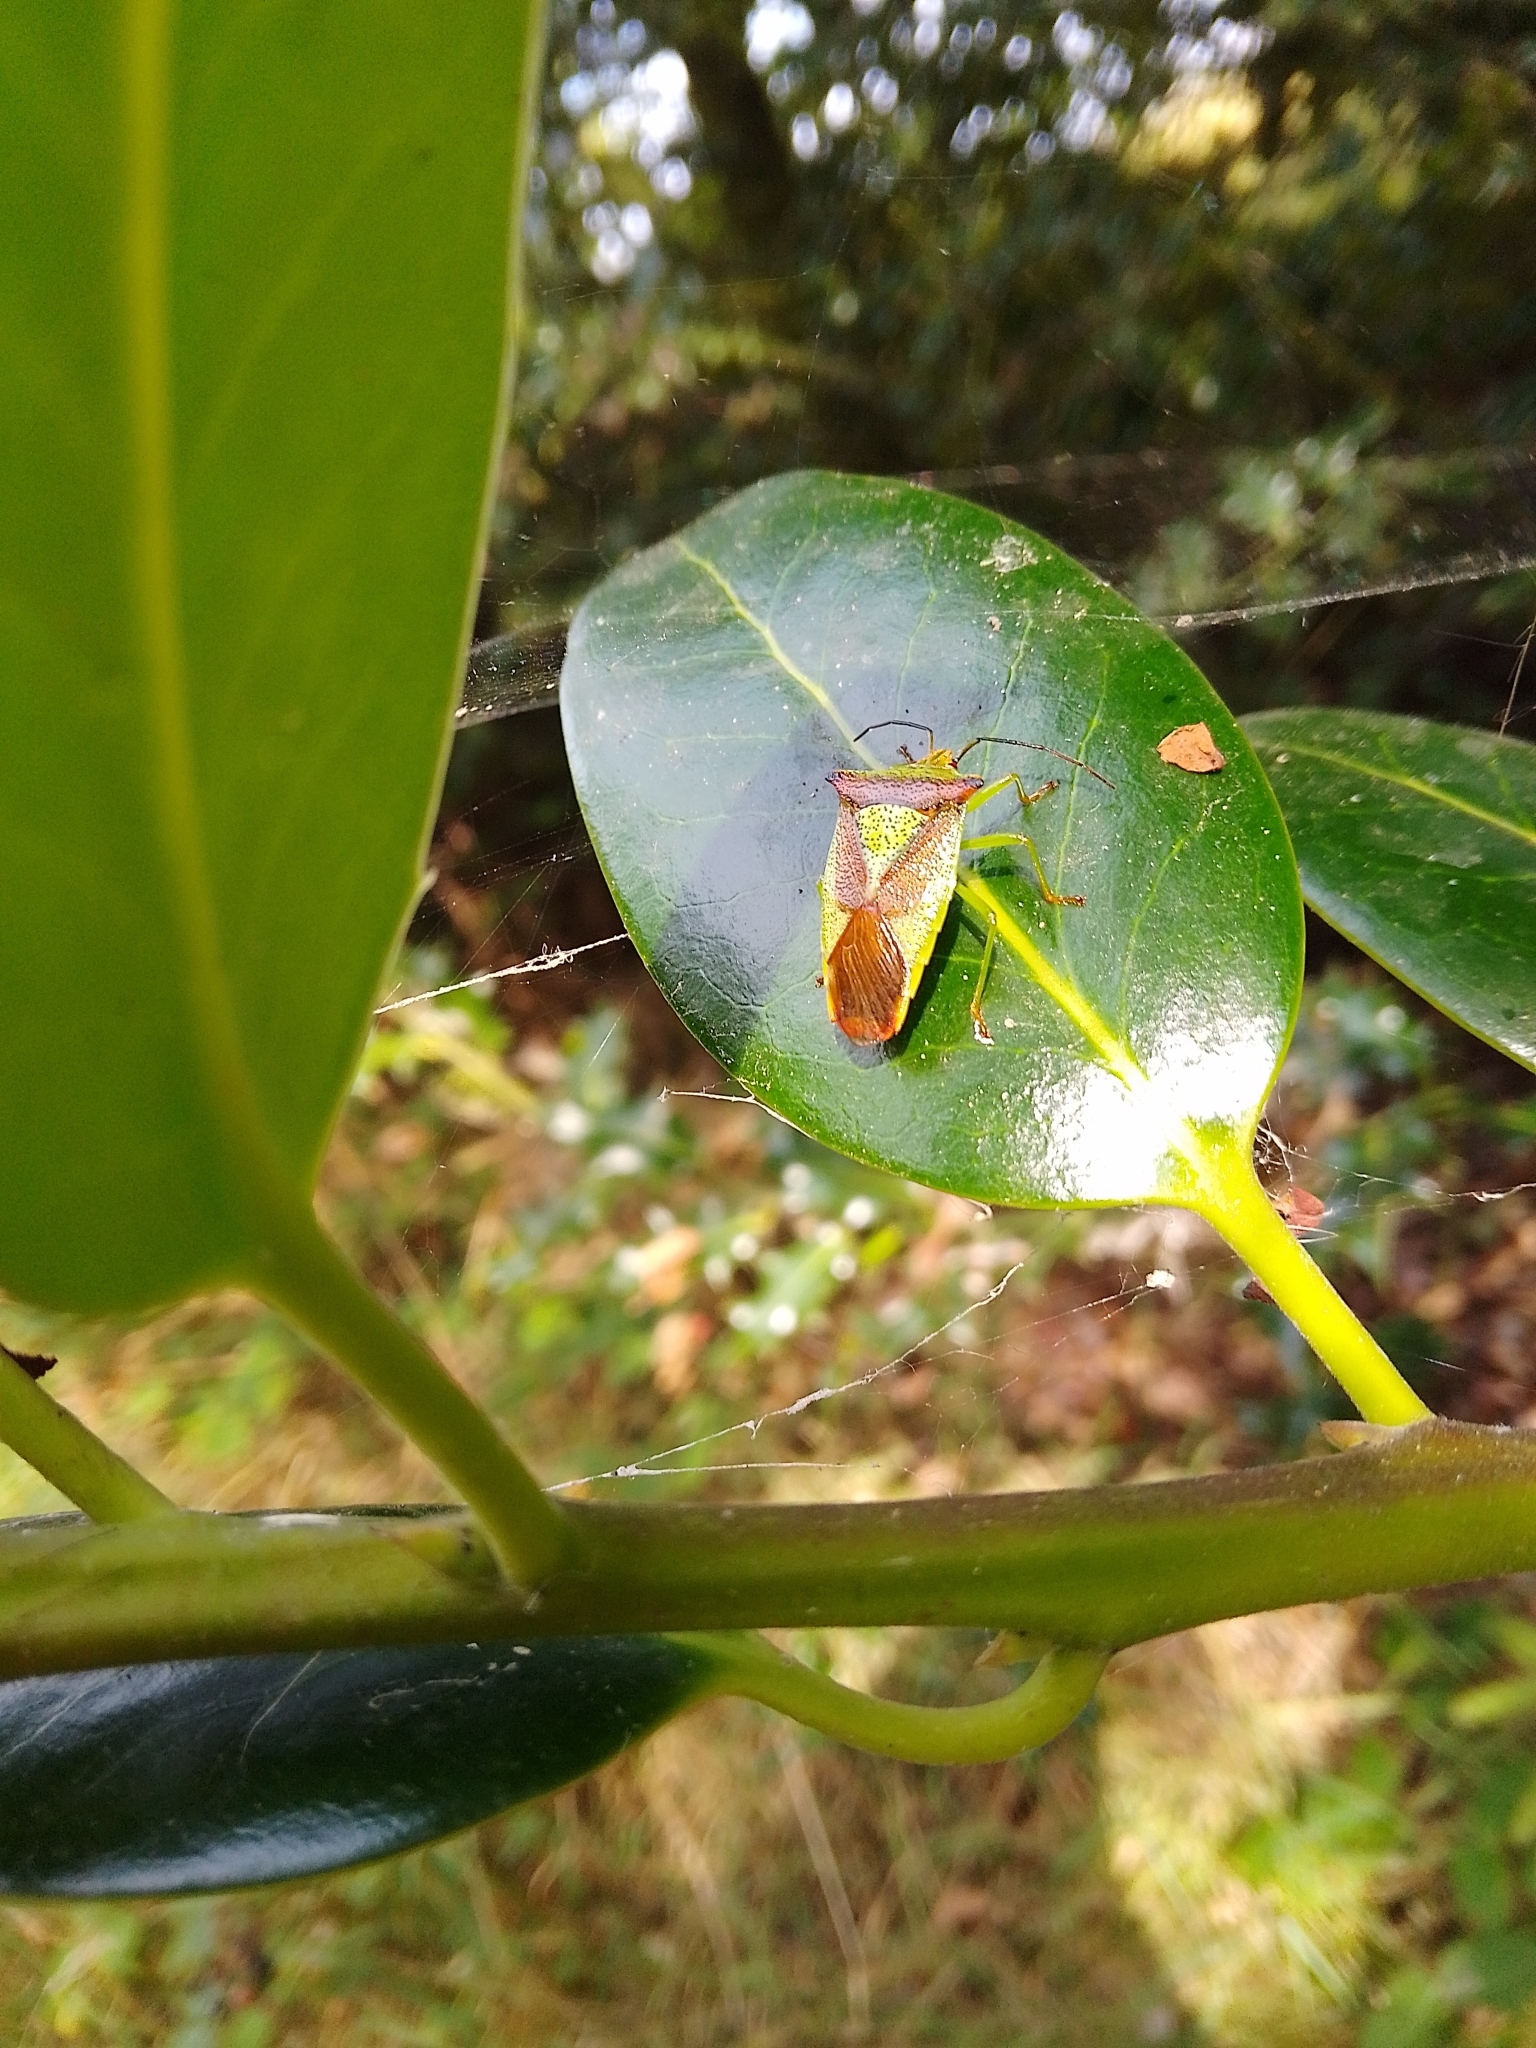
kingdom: Animalia
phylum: Arthropoda
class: Insecta
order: Hemiptera
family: Acanthosomatidae
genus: Acanthosoma
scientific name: Acanthosoma haemorrhoidale
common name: Hawthorn shieldbug
